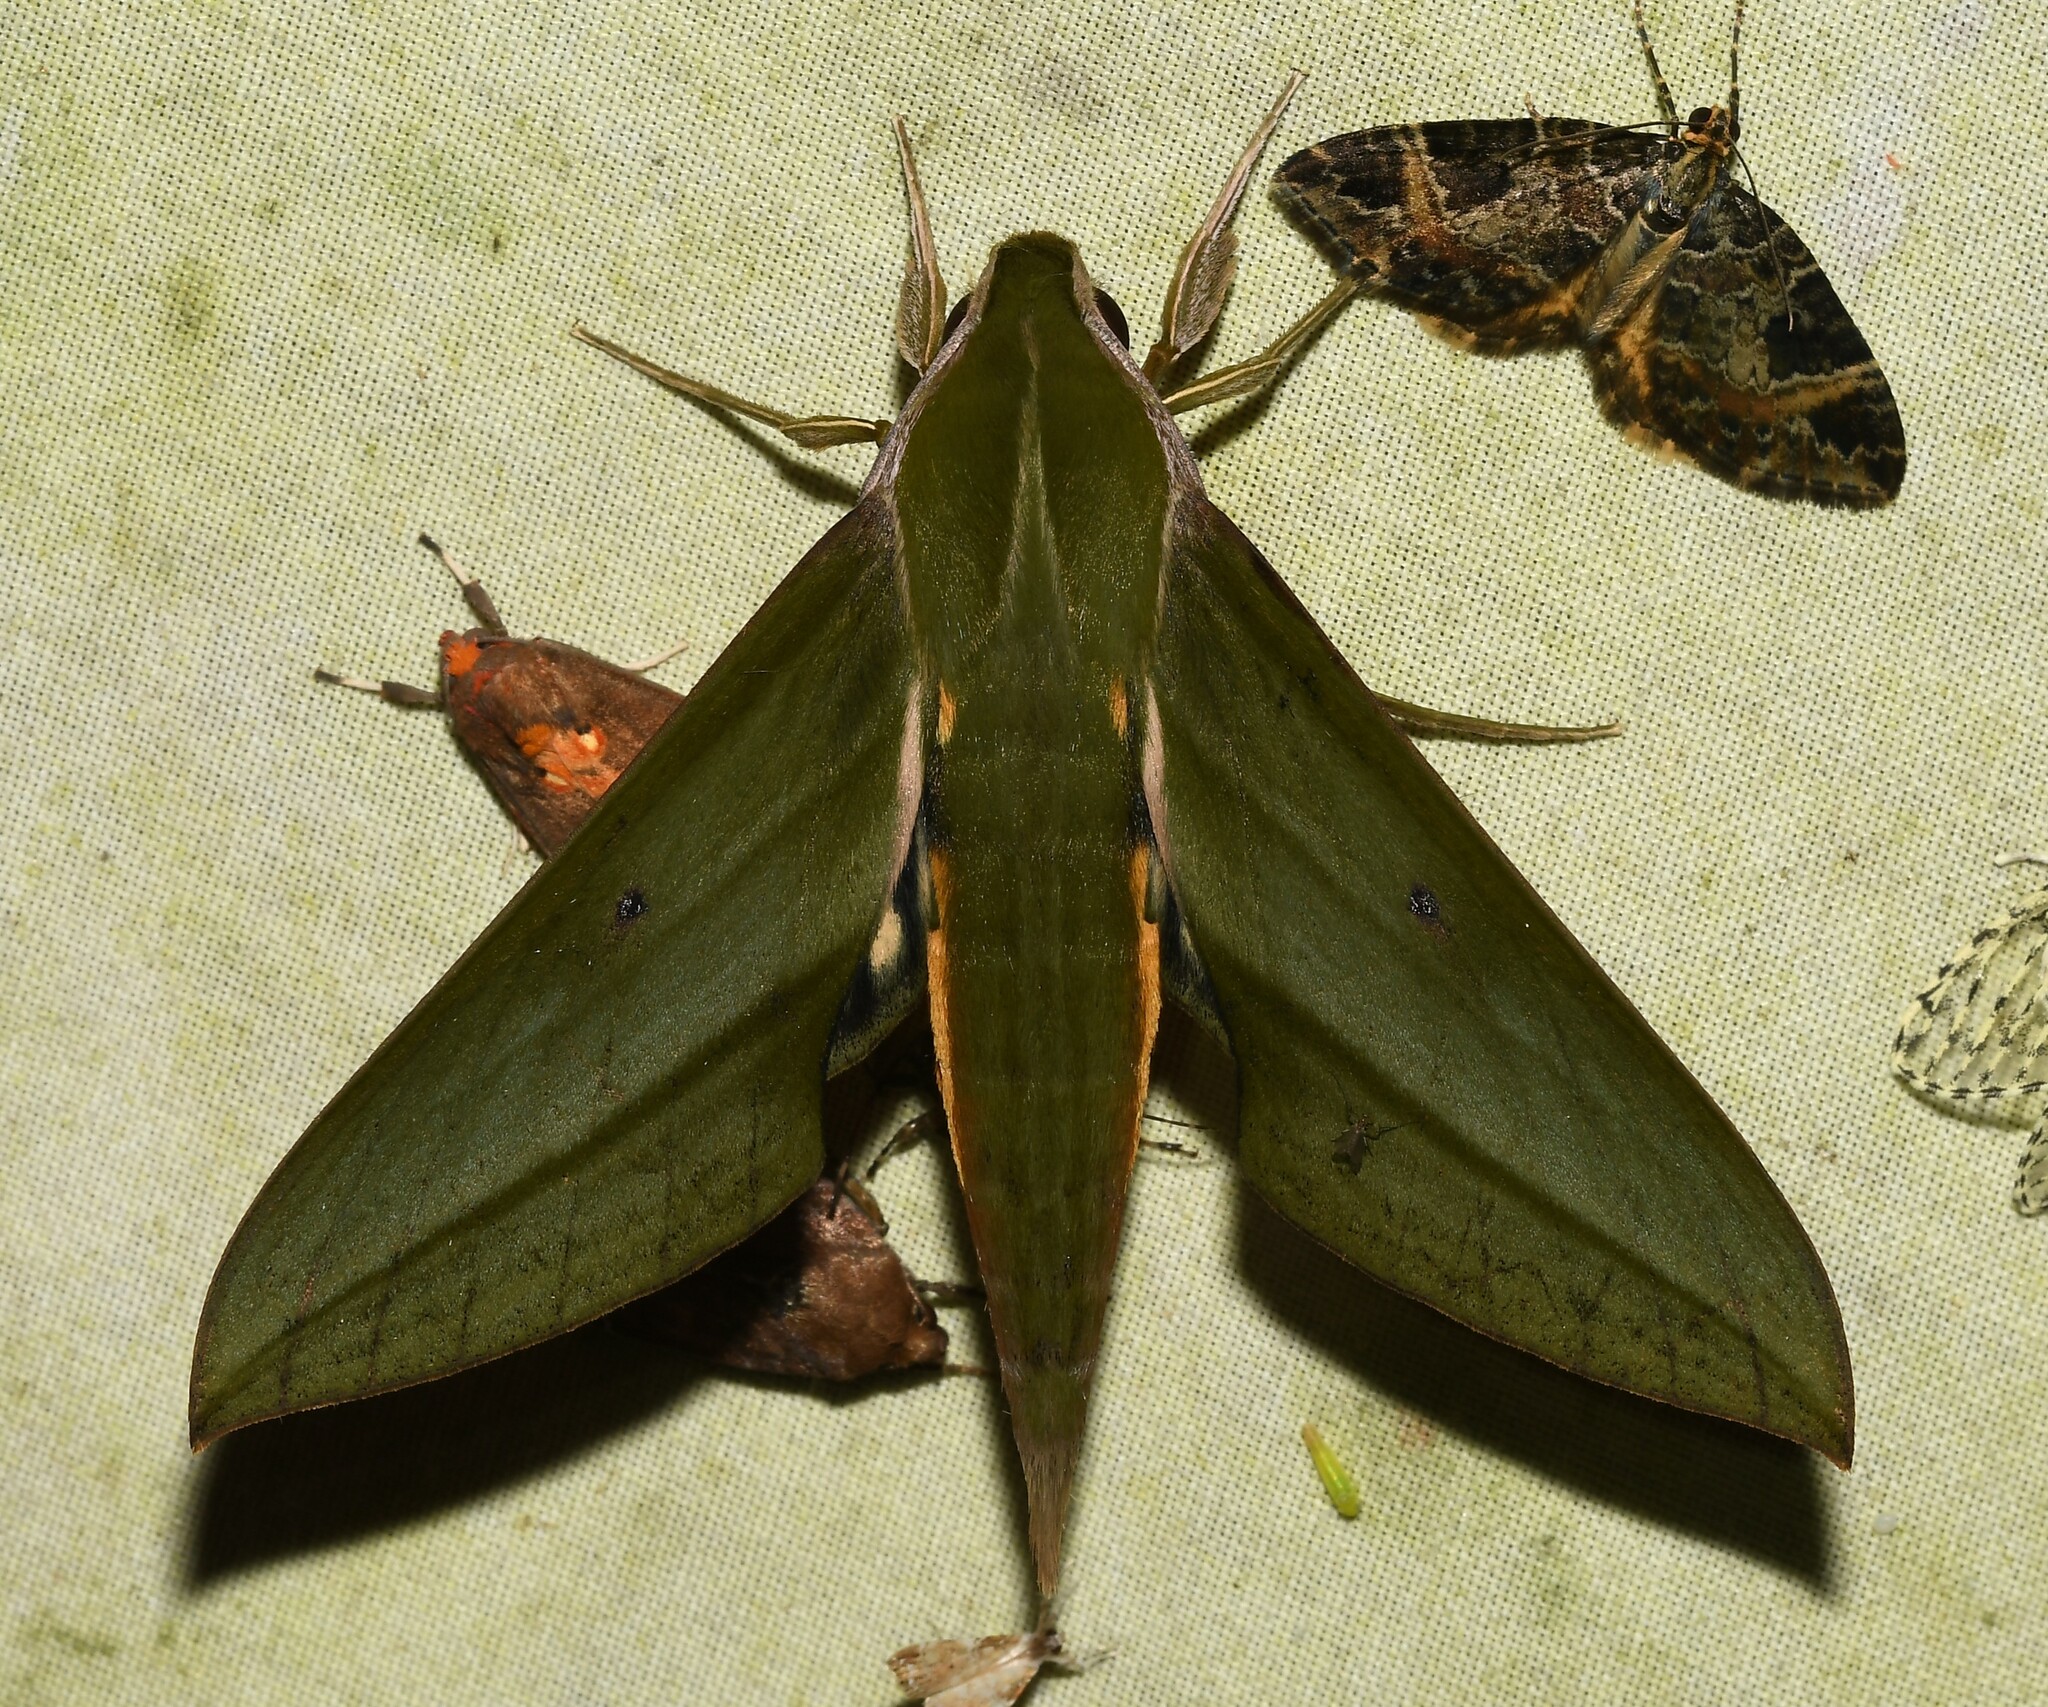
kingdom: Animalia
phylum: Arthropoda
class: Insecta
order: Lepidoptera
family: Sphingidae
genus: Xylophanes
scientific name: Xylophanes alexandrei
